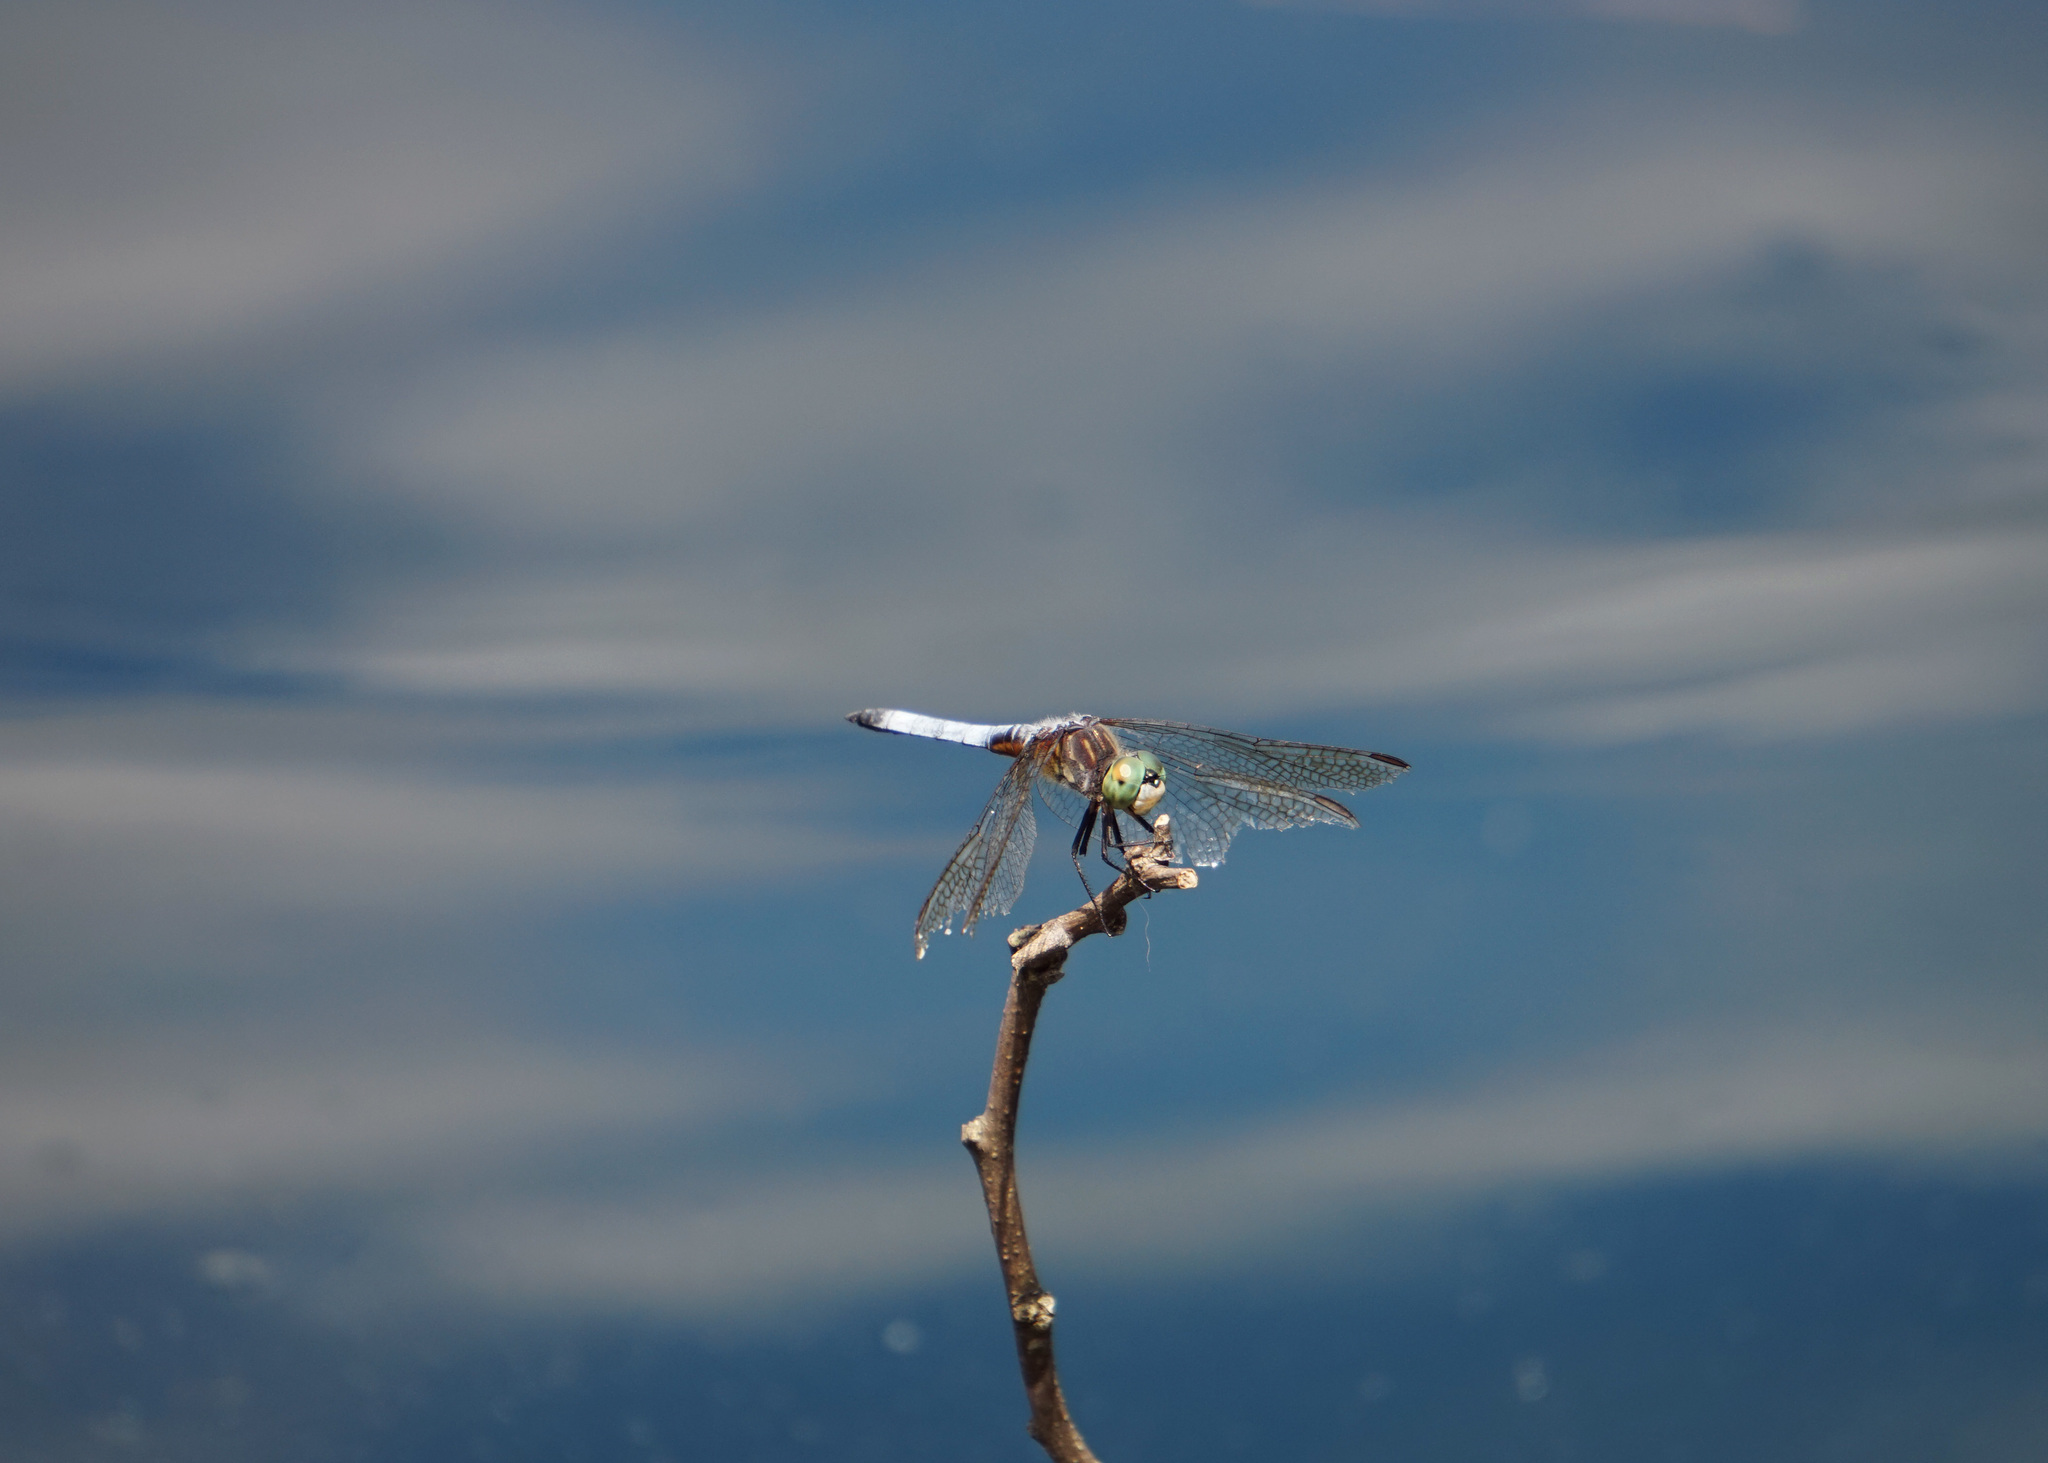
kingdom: Animalia
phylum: Arthropoda
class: Insecta
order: Odonata
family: Libellulidae
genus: Pachydiplax
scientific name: Pachydiplax longipennis
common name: Blue dasher
